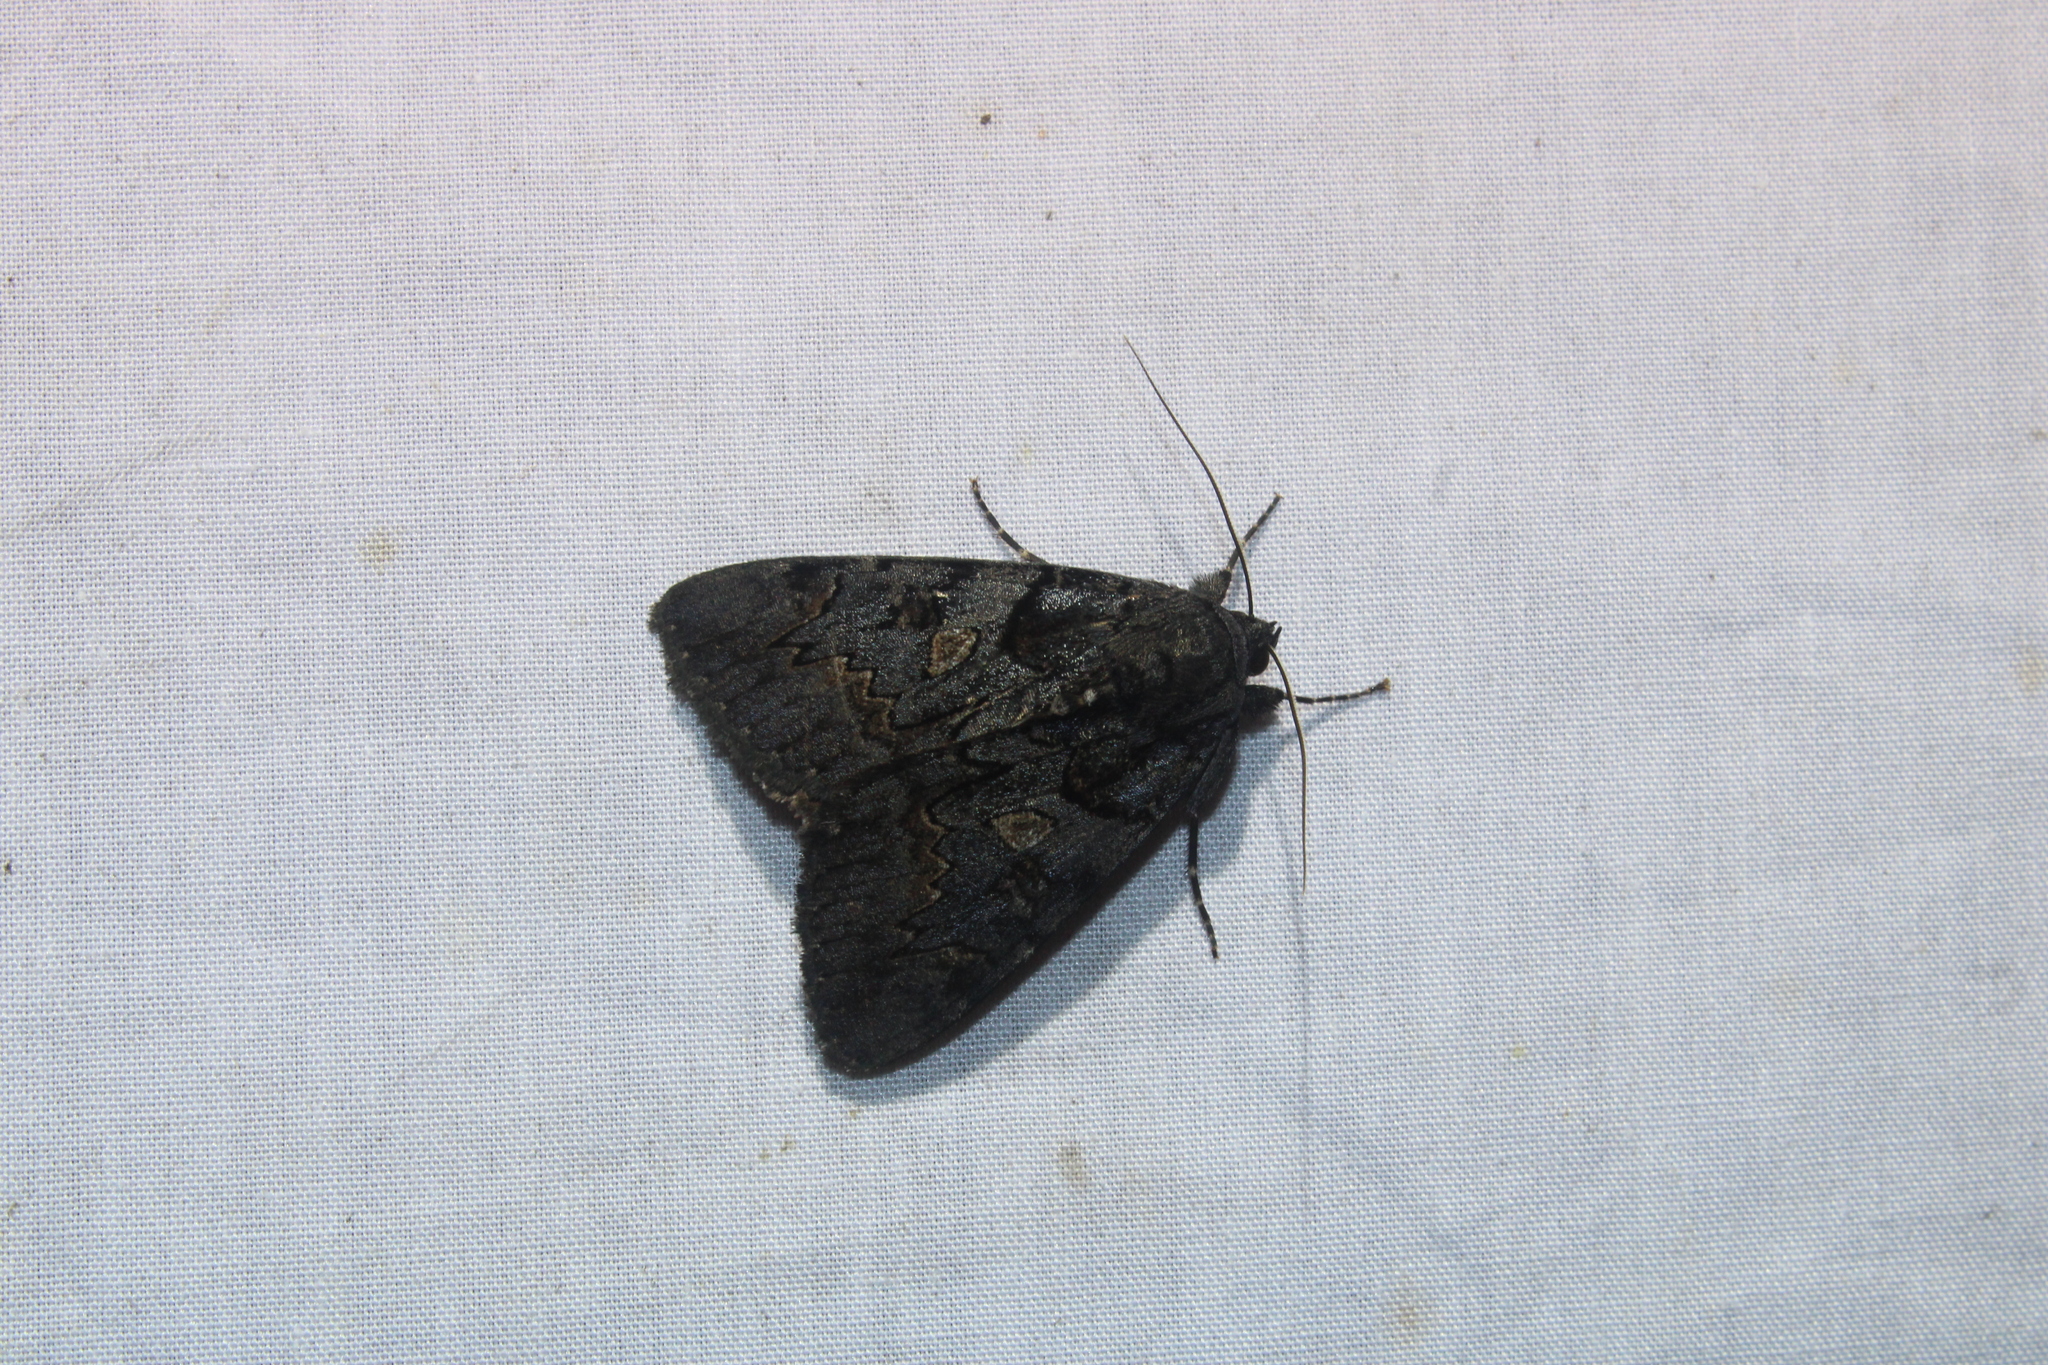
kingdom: Animalia
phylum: Arthropoda
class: Insecta
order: Lepidoptera
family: Erebidae
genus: Catocala
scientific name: Catocala antinympha
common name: Sweetfern underwing
